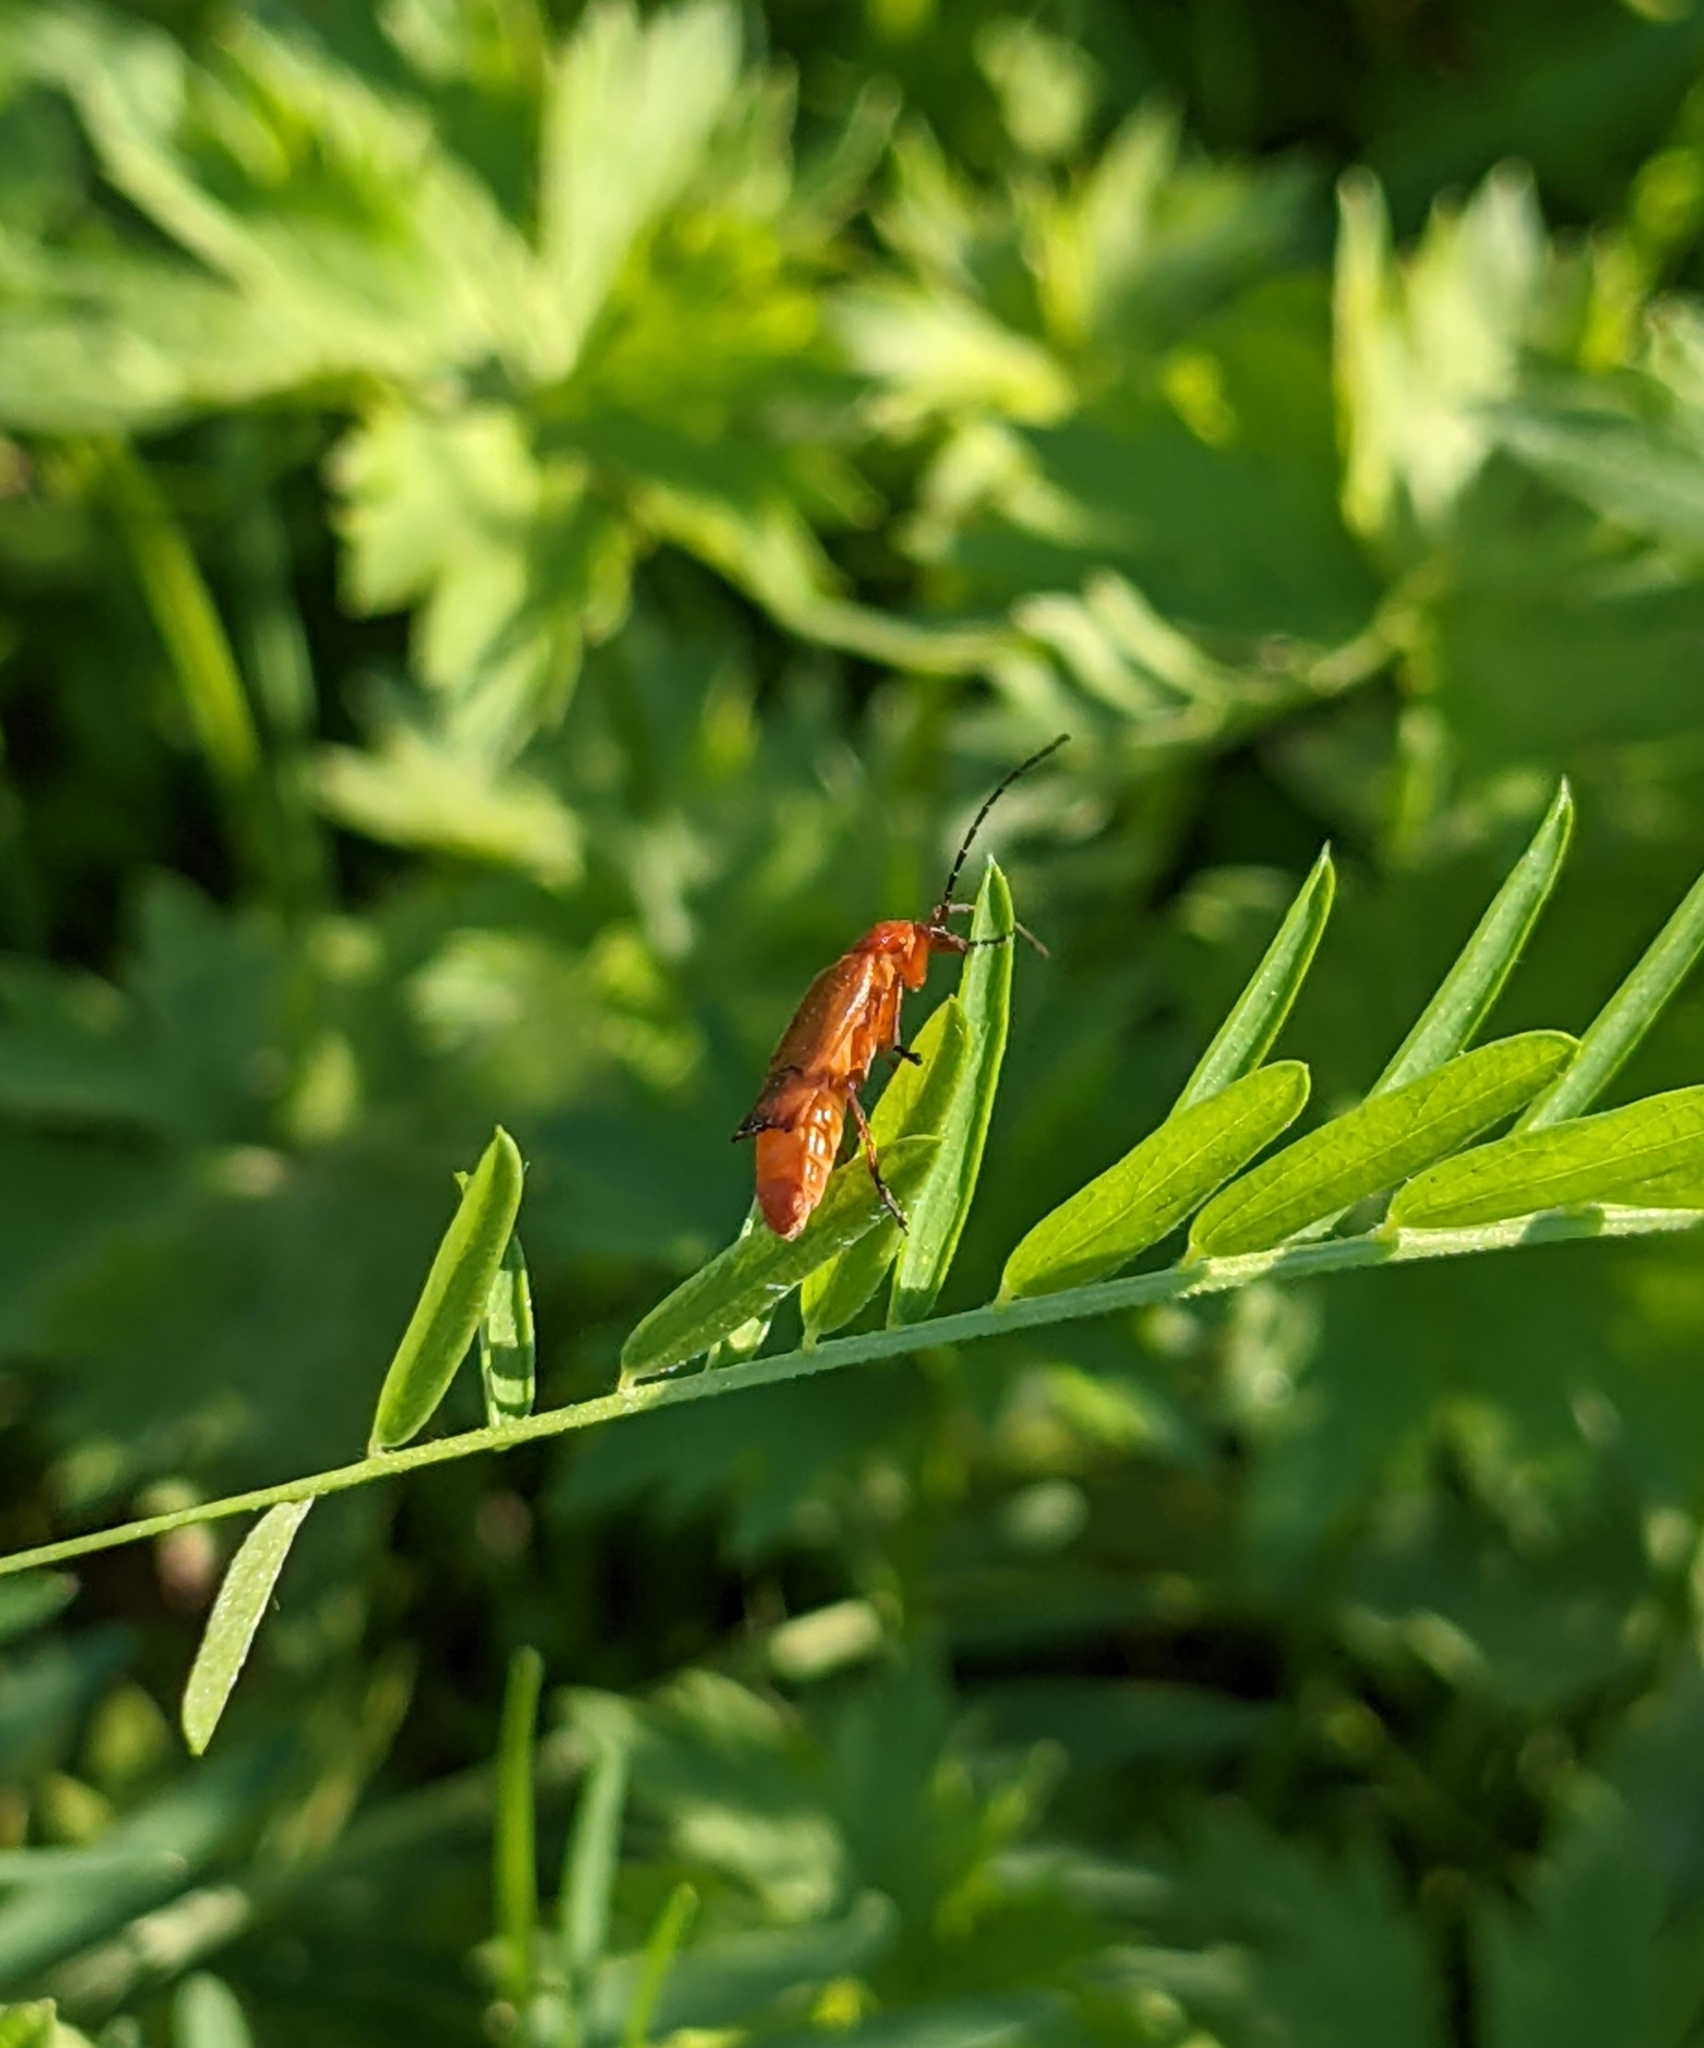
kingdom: Animalia
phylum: Arthropoda
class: Insecta
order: Coleoptera
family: Cantharidae
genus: Rhagonycha
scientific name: Rhagonycha fulva
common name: Common red soldier beetle
